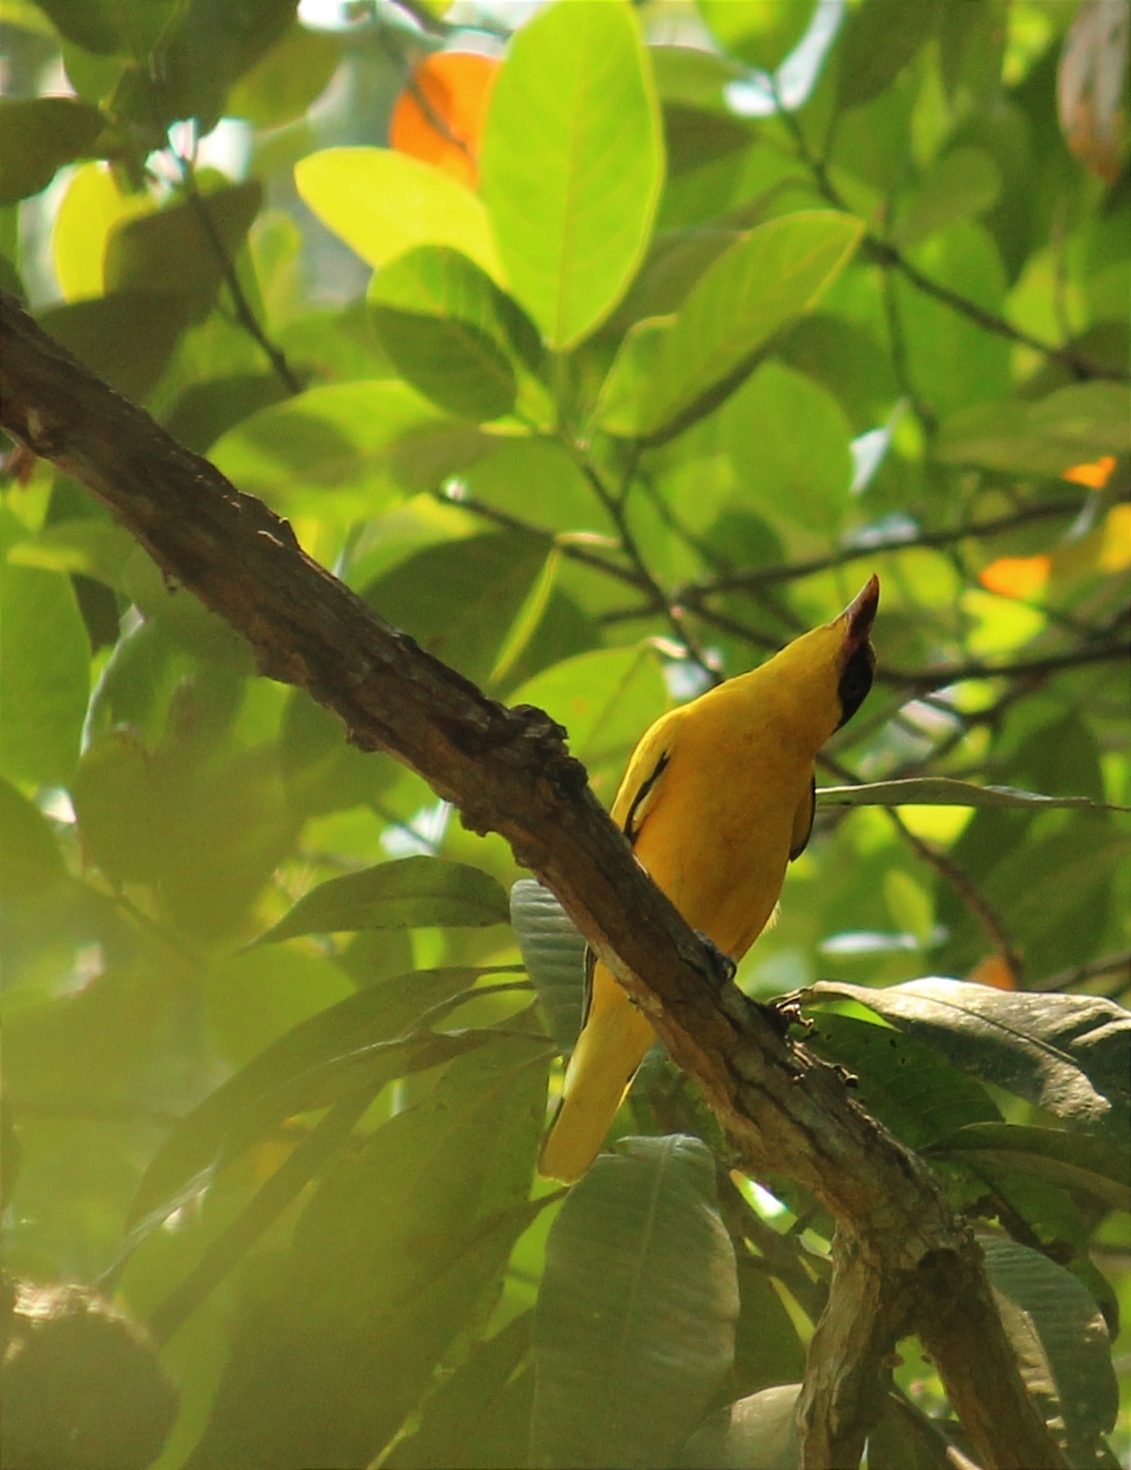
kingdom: Animalia
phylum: Chordata
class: Aves
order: Passeriformes
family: Oriolidae
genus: Oriolus
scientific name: Oriolus chinensis
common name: Black-naped oriole
